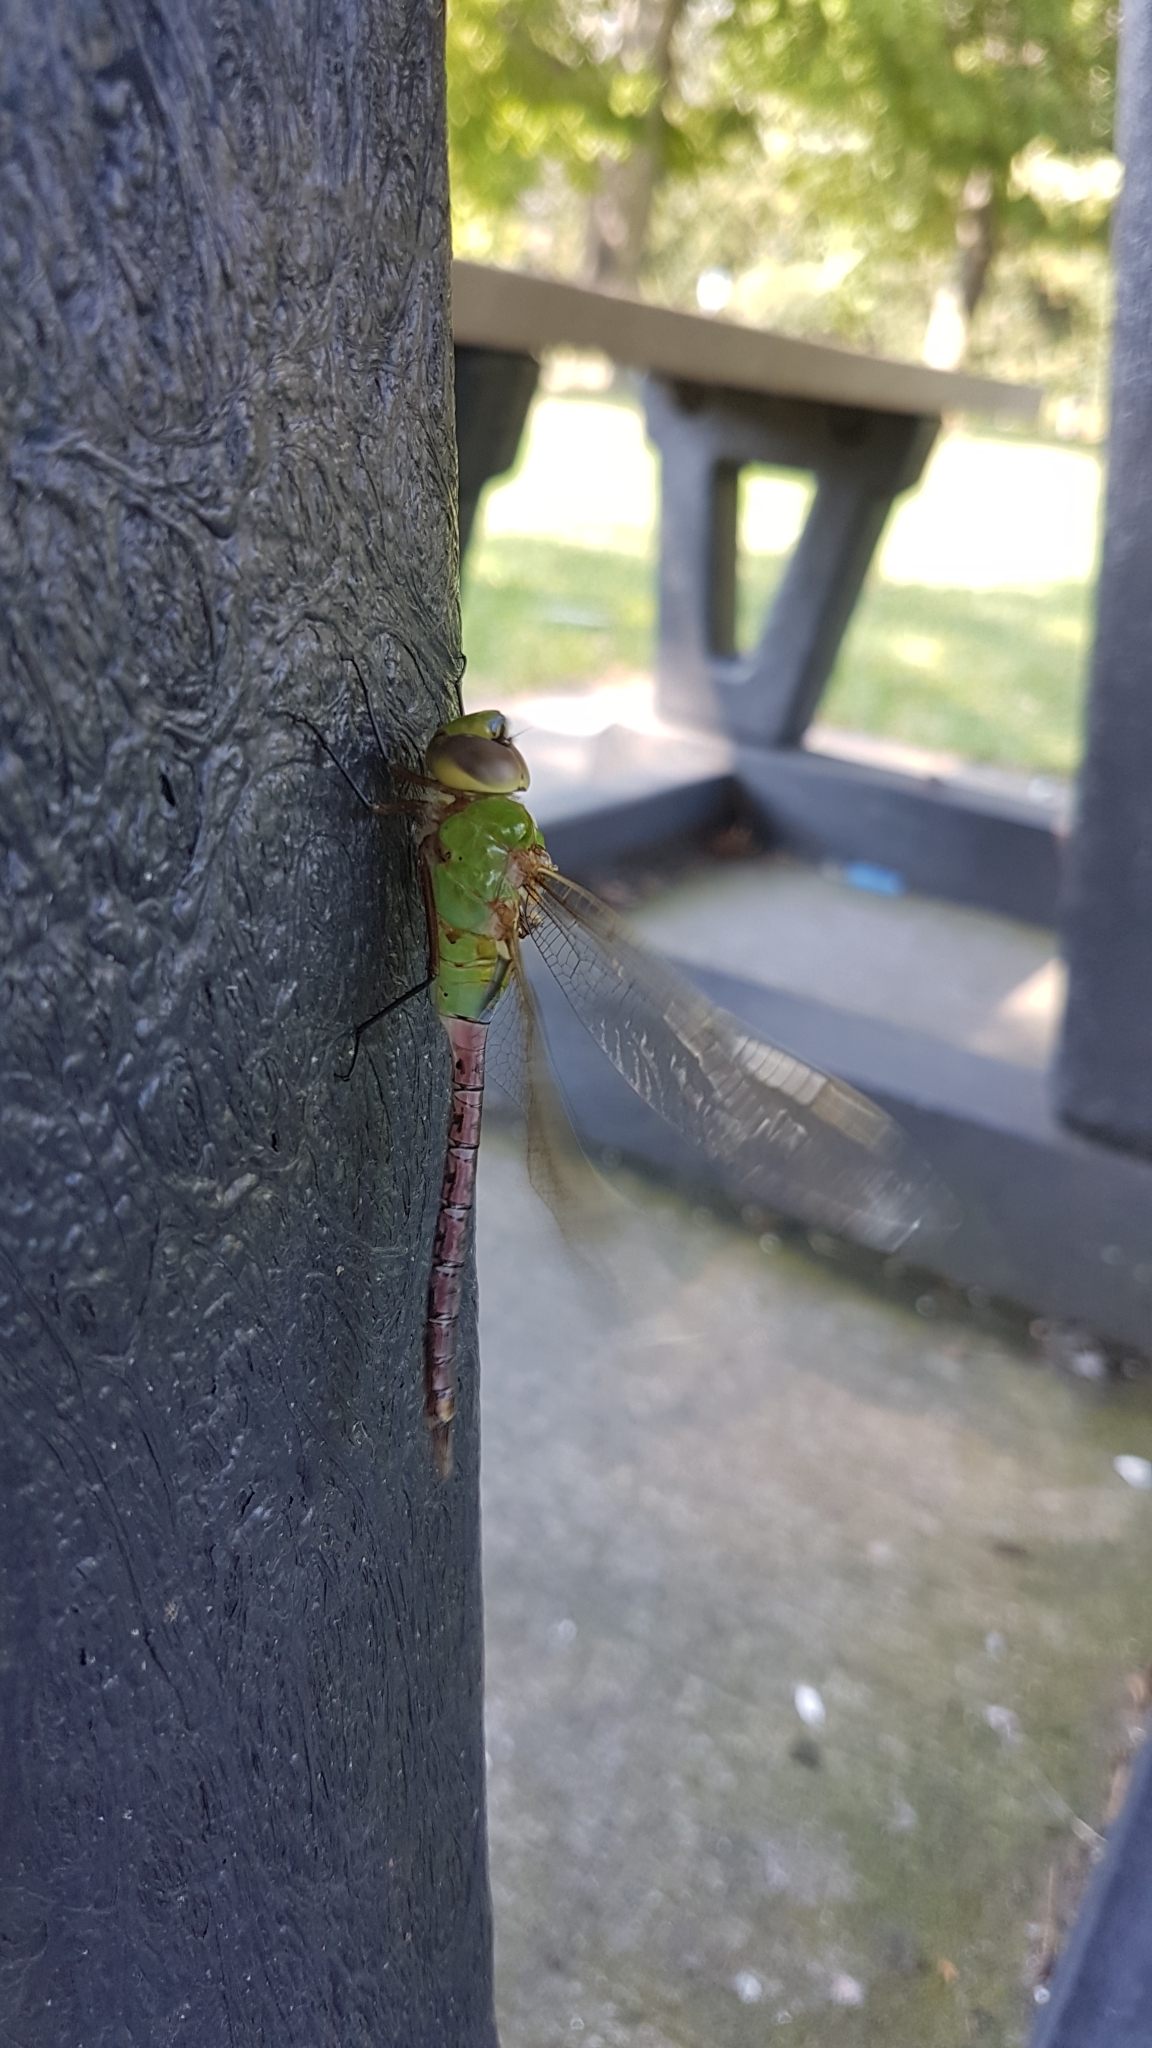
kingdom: Animalia
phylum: Arthropoda
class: Insecta
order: Odonata
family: Aeshnidae
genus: Anax
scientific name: Anax junius
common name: Common green darner
